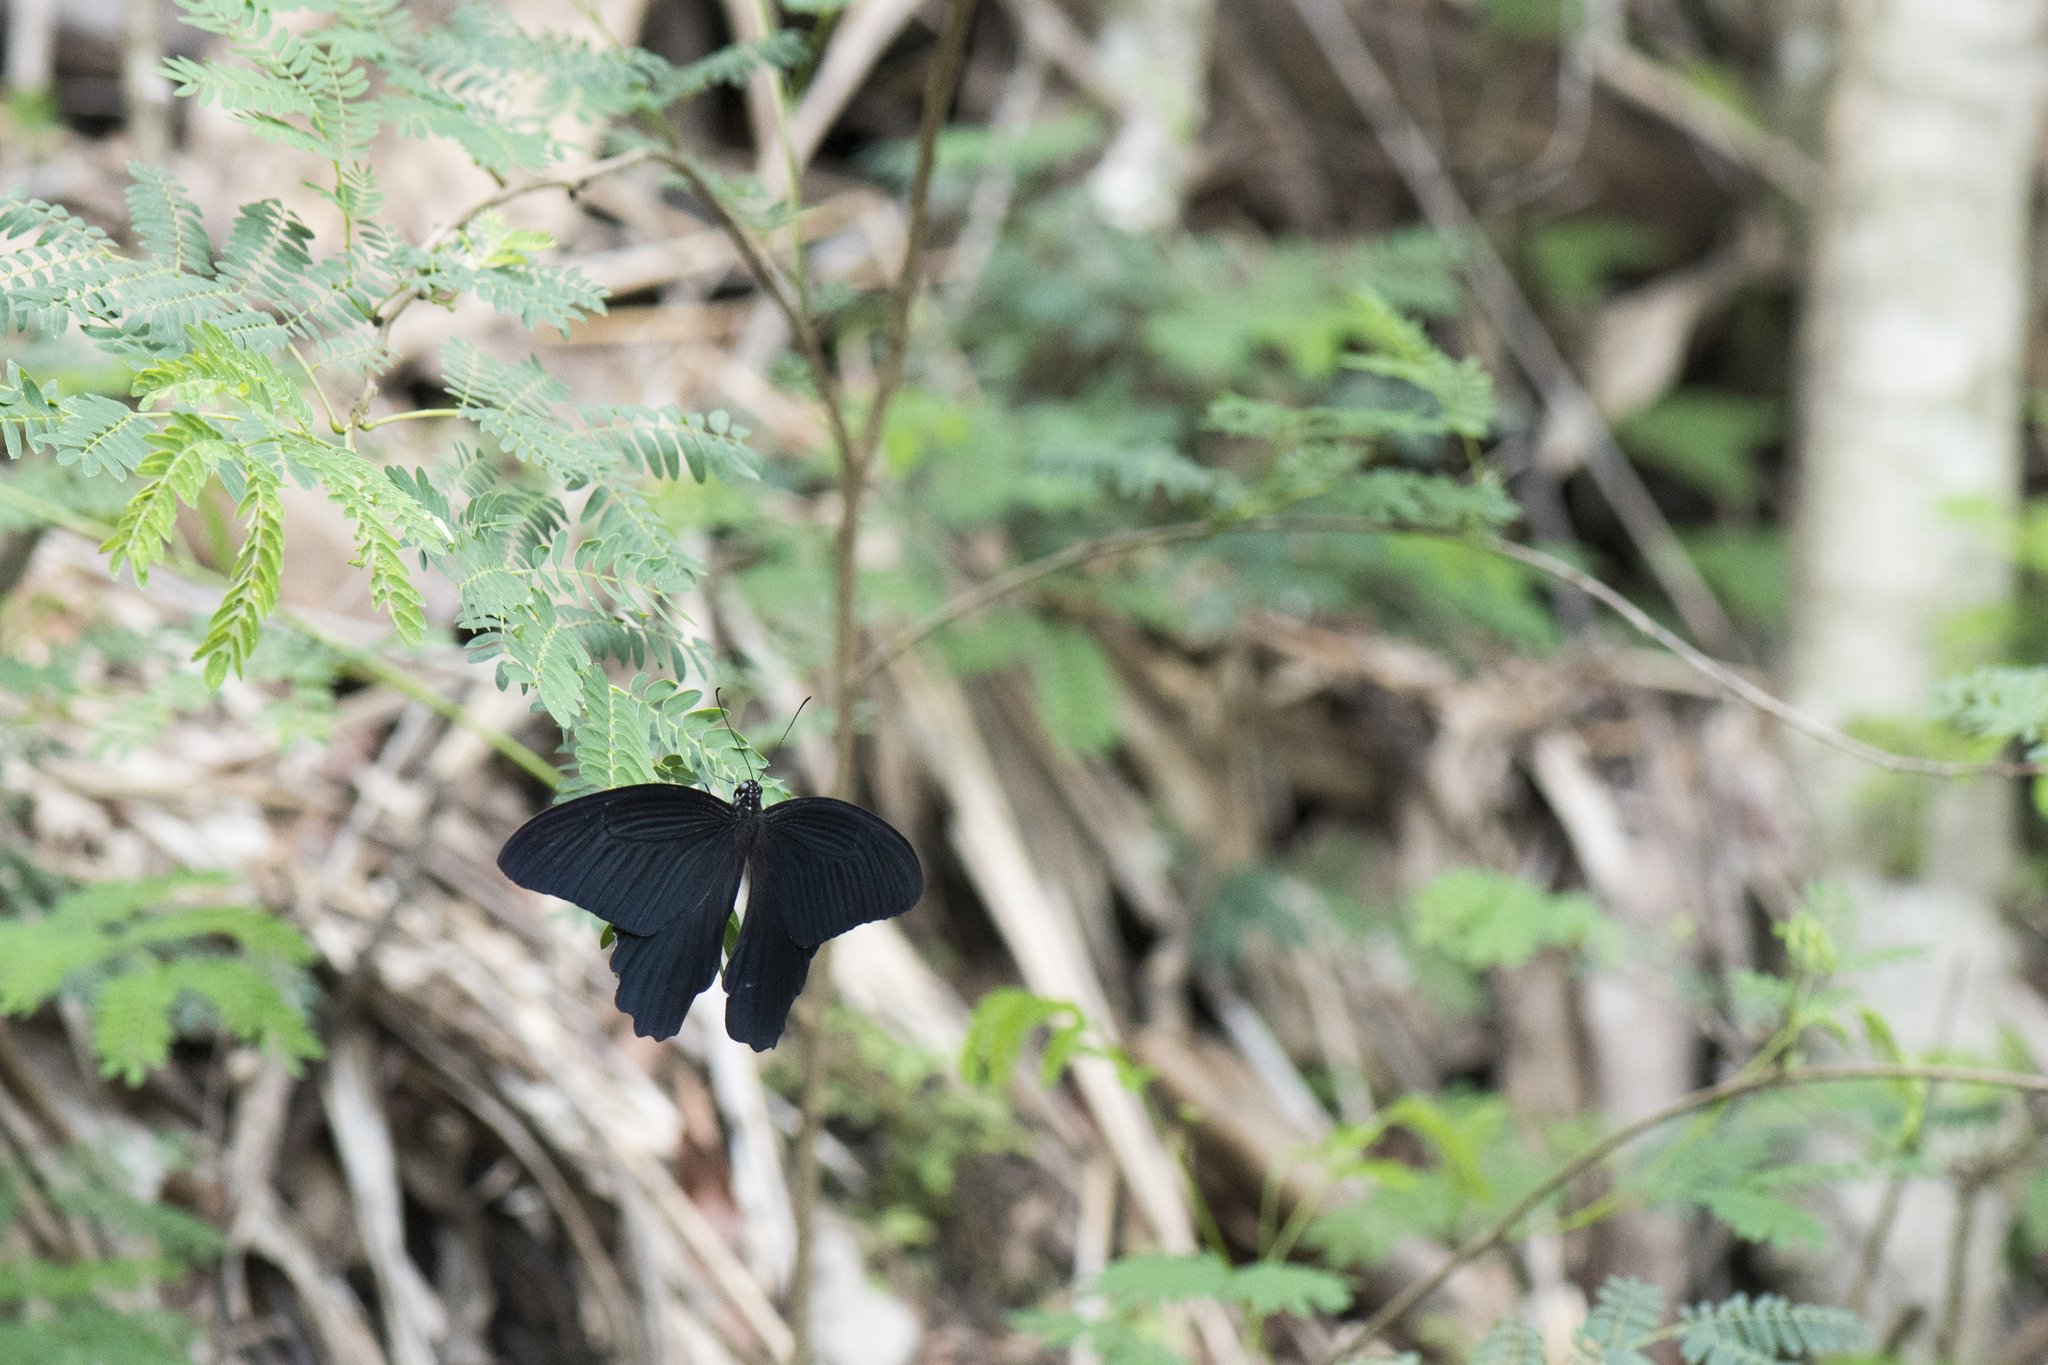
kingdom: Animalia
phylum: Arthropoda
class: Insecta
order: Lepidoptera
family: Papilionidae
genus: Papilio
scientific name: Papilio protenor
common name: Spangle
